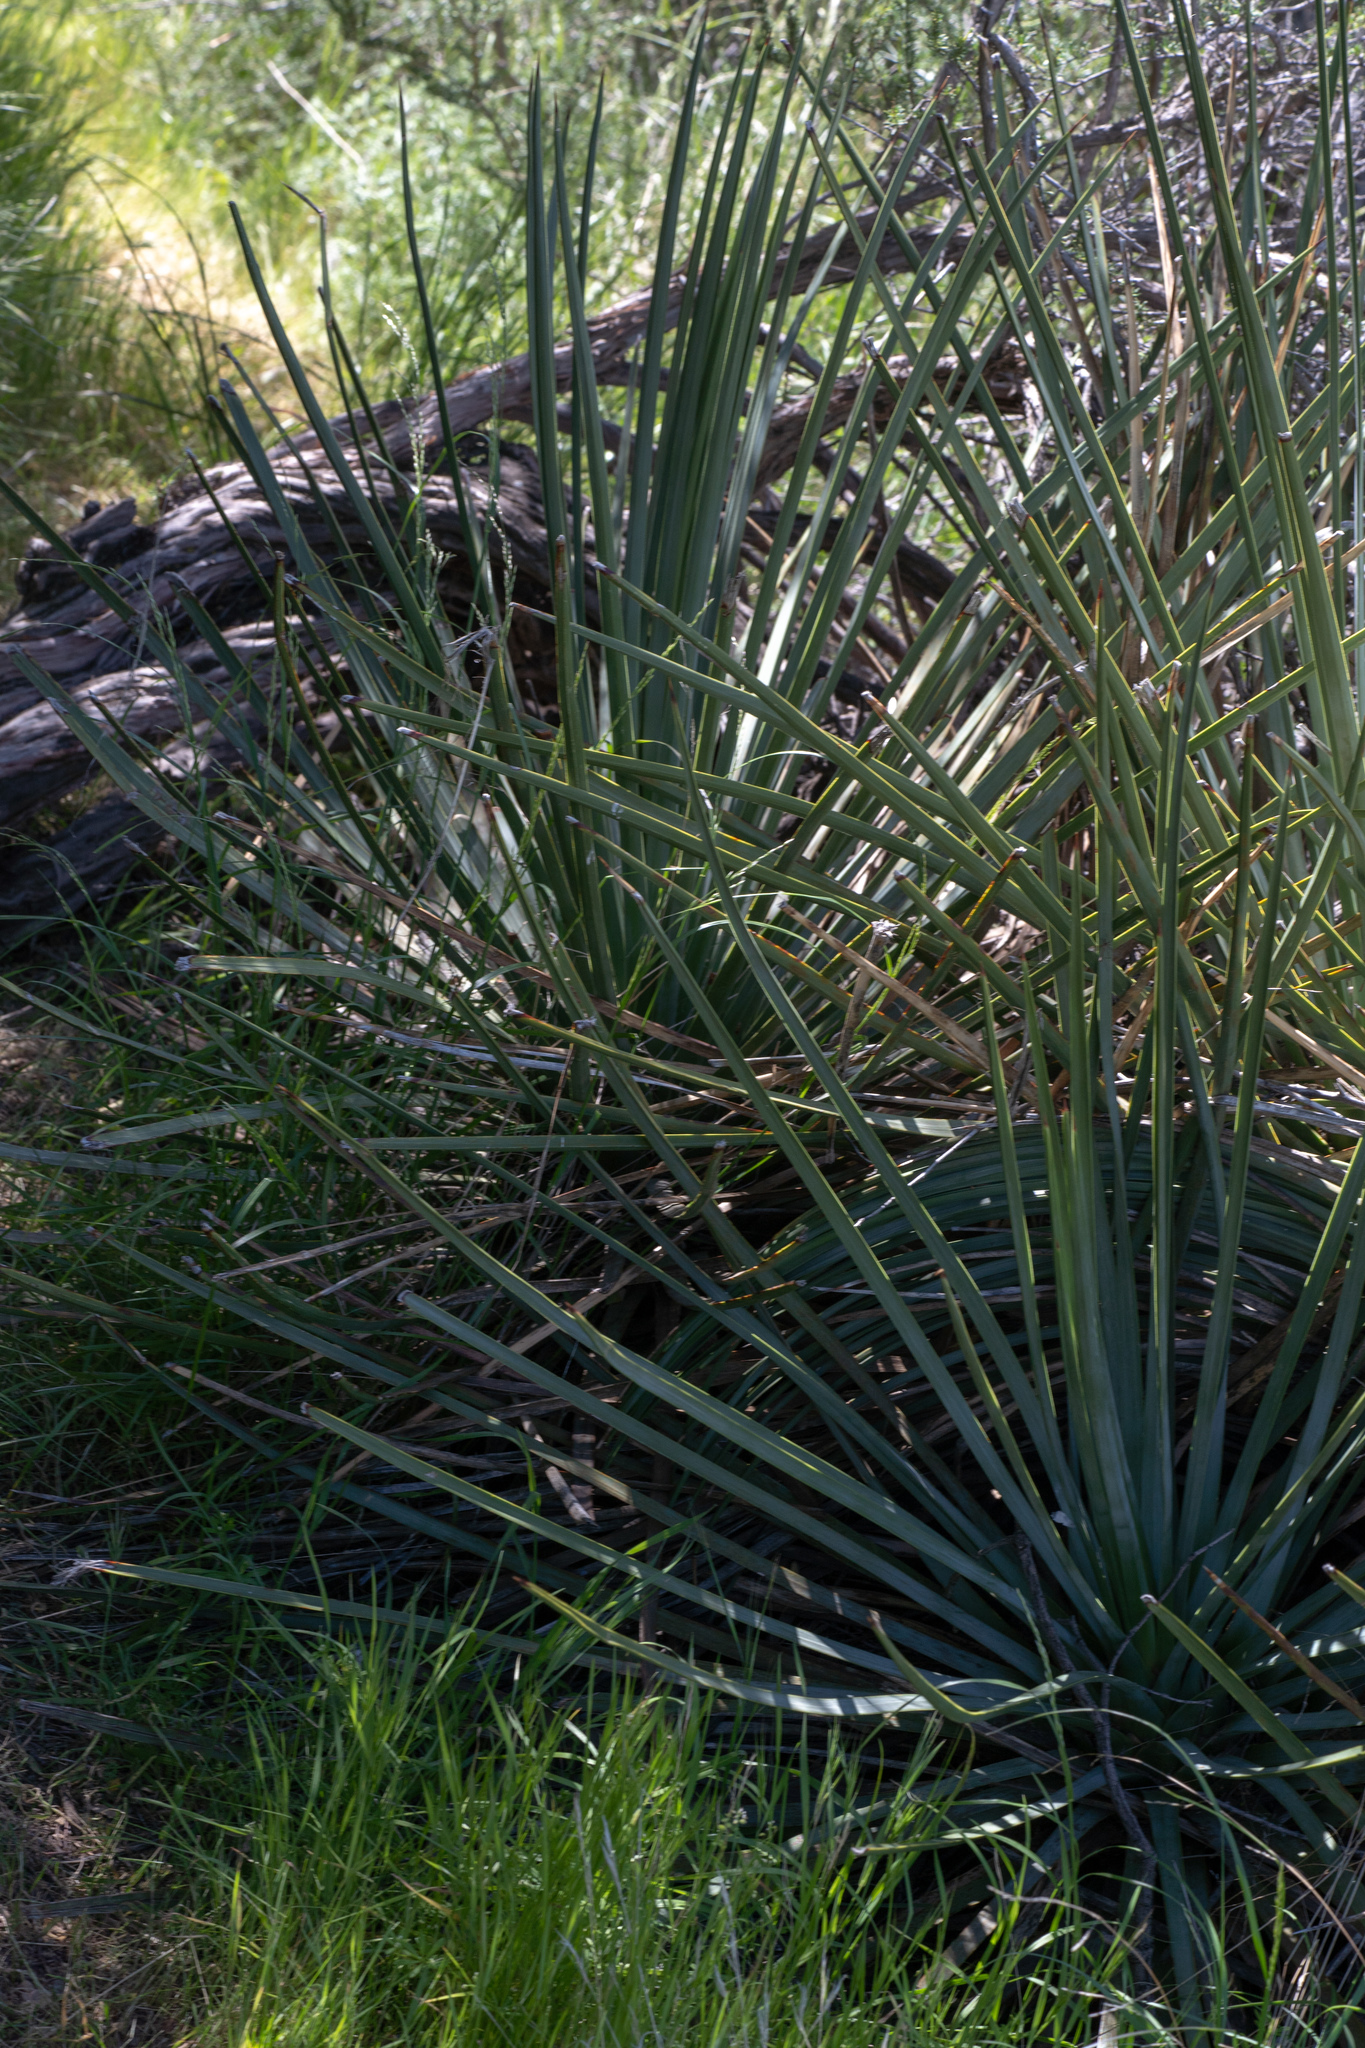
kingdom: Plantae
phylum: Tracheophyta
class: Liliopsida
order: Asparagales
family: Asparagaceae
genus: Hesperoyucca
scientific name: Hesperoyucca whipplei
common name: Our lord's-candle
